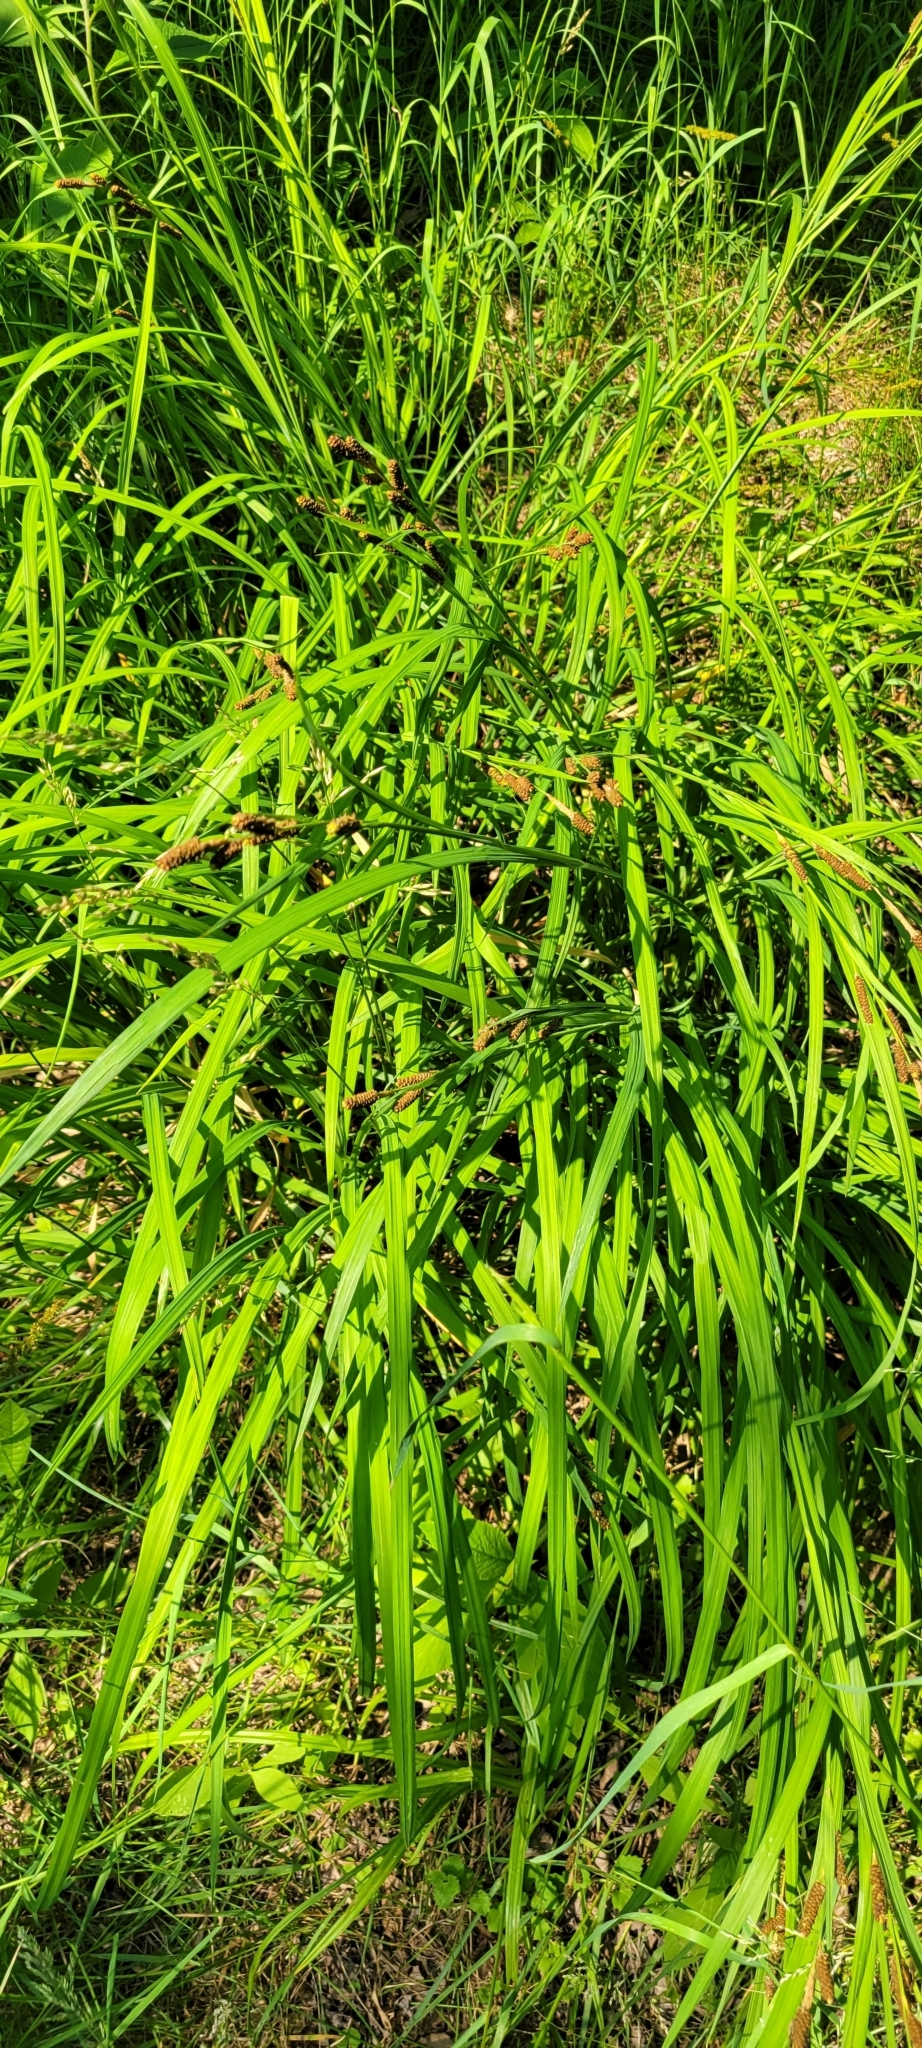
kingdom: Plantae
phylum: Tracheophyta
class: Liliopsida
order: Poales
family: Cyperaceae
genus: Carex
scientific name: Carex shortiana
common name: Short's sedge
